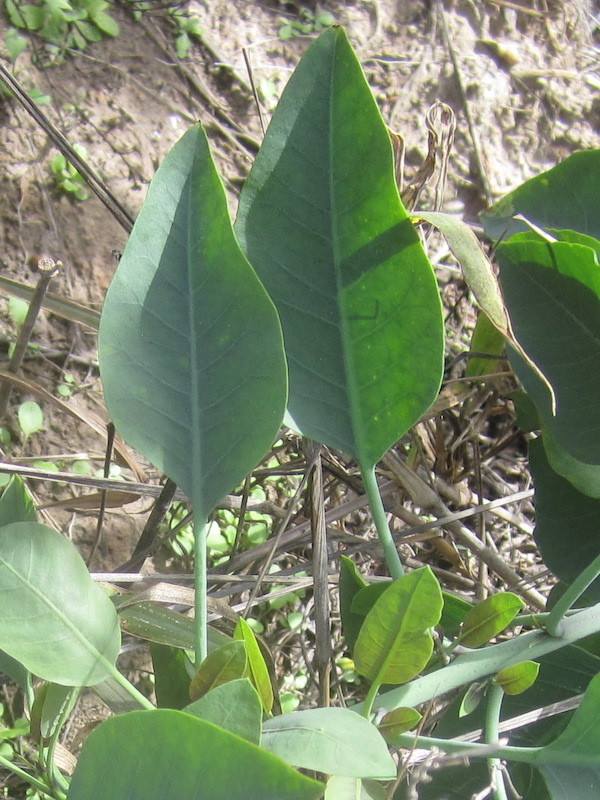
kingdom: Plantae
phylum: Tracheophyta
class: Magnoliopsida
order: Solanales
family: Solanaceae
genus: Nicotiana
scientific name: Nicotiana glauca
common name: Tree tobacco
